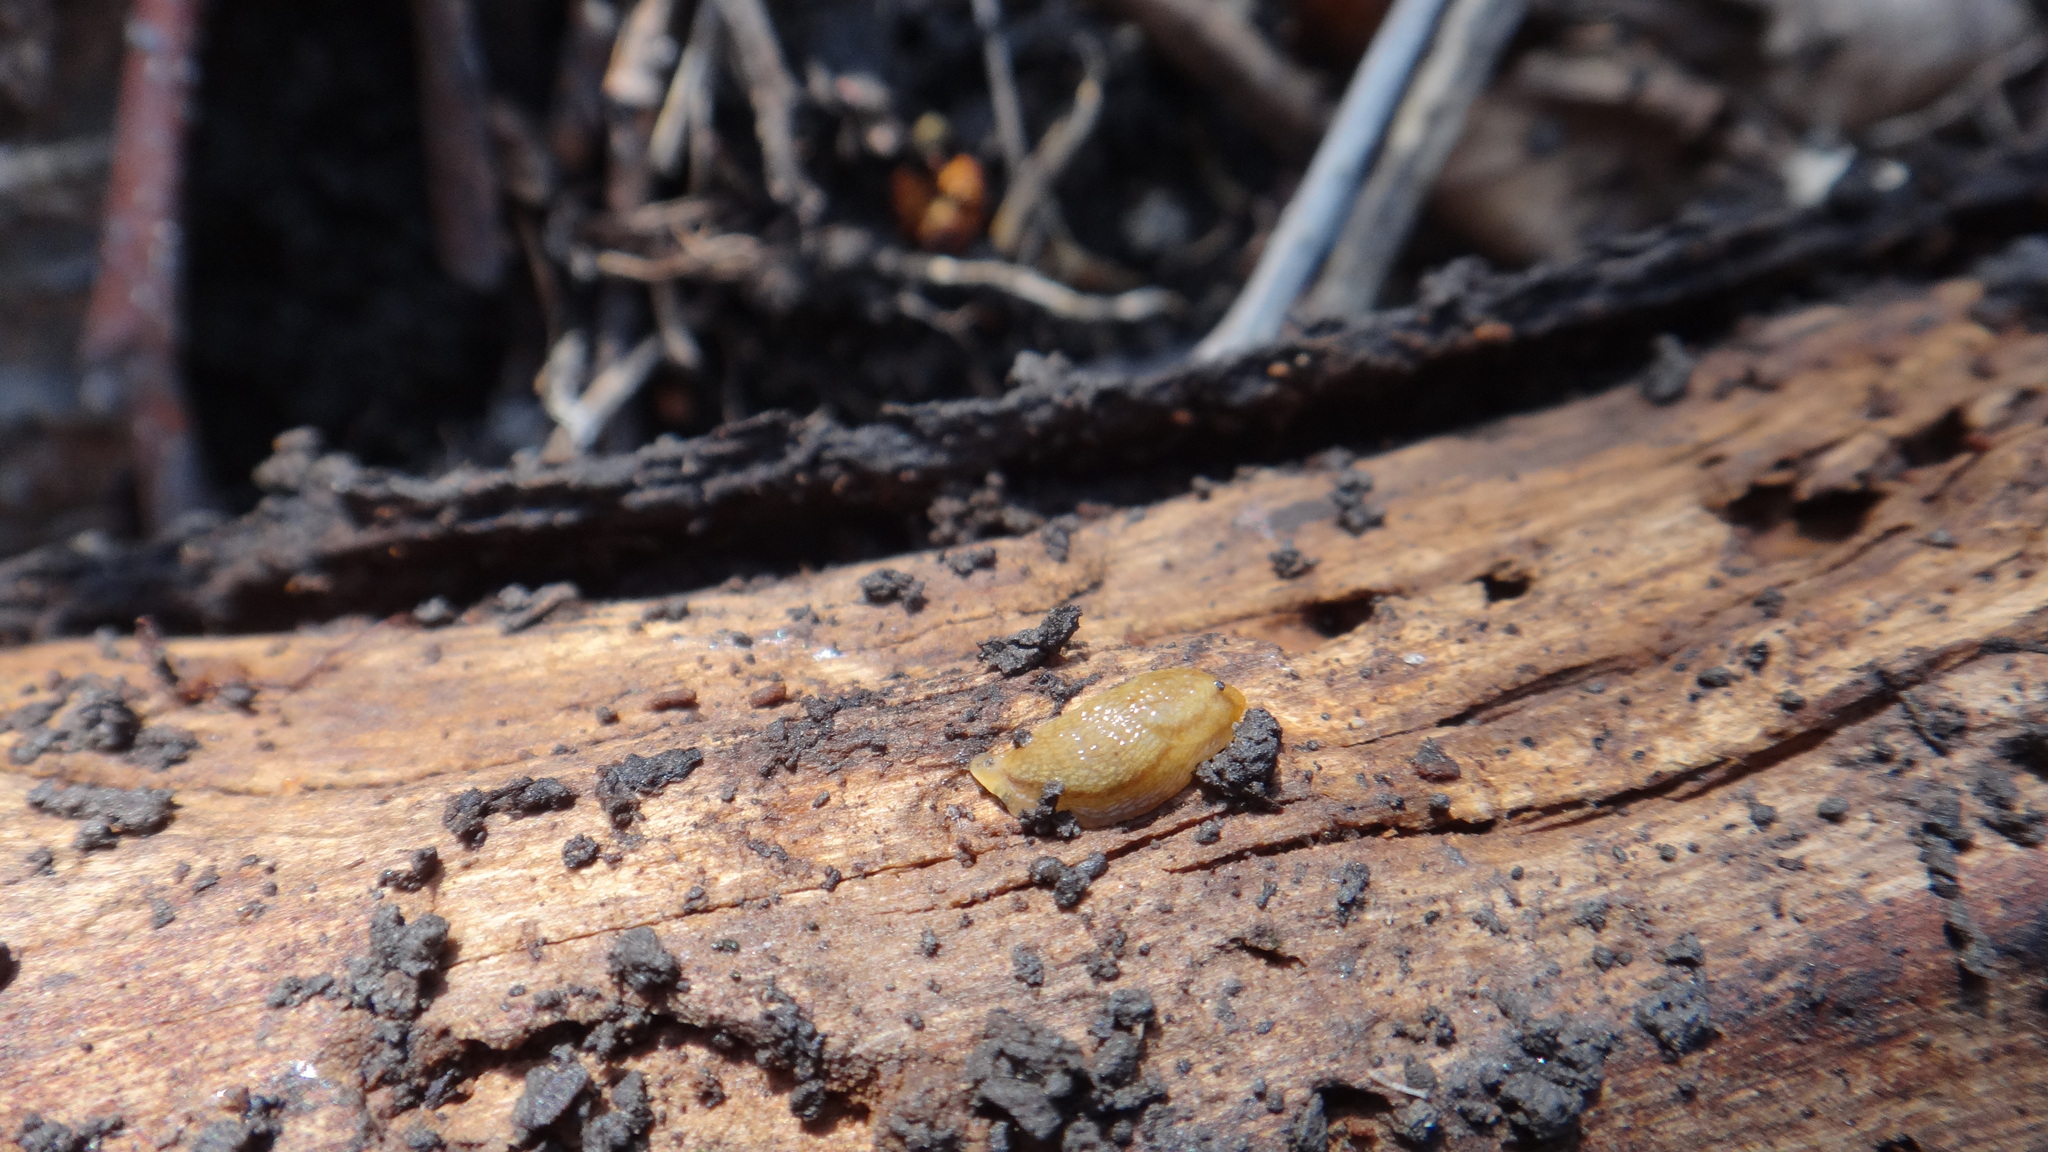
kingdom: Animalia
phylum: Mollusca
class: Gastropoda
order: Stylommatophora
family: Arionidae
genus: Arion
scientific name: Arion fuscus
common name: Northern dusky slug
